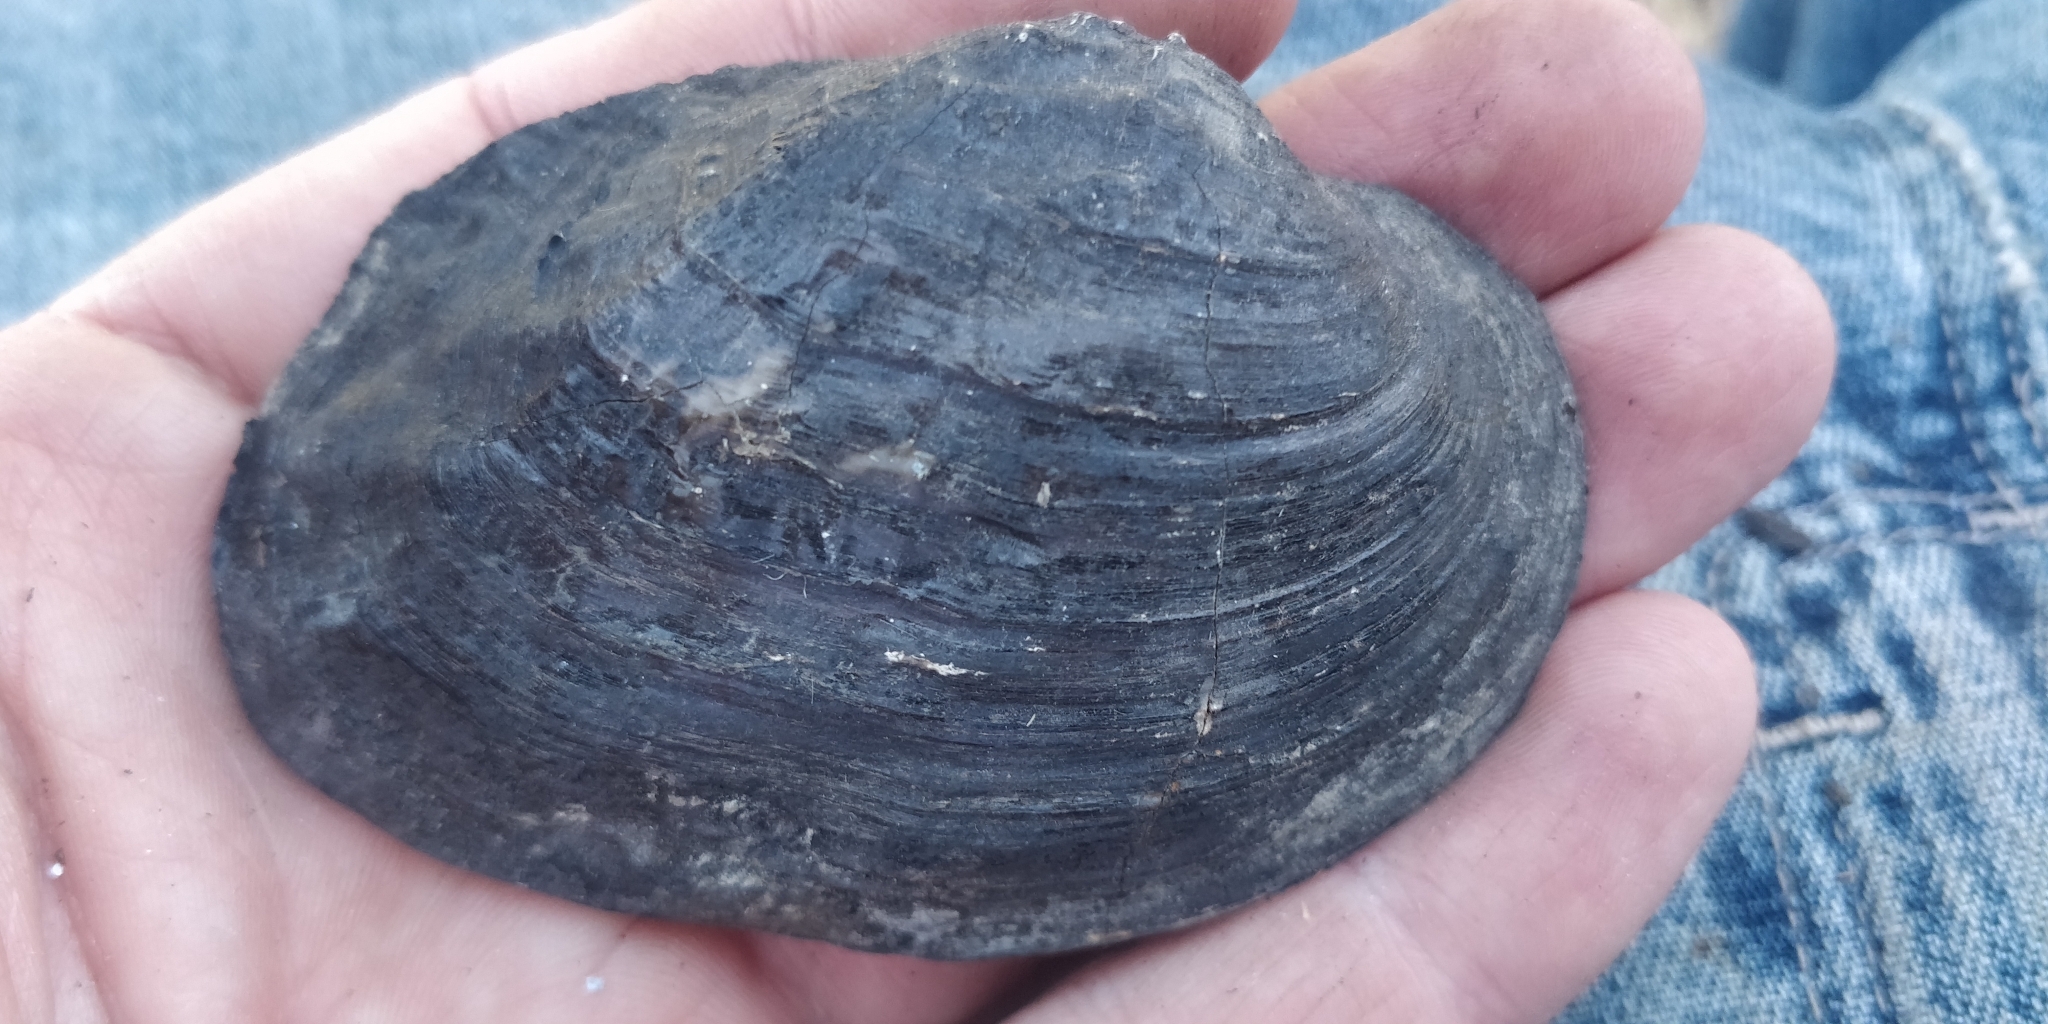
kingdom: Animalia
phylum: Mollusca
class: Bivalvia
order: Unionida
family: Unionidae
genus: Arcidens
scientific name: Arcidens confragosus
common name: Rock pocketbook
